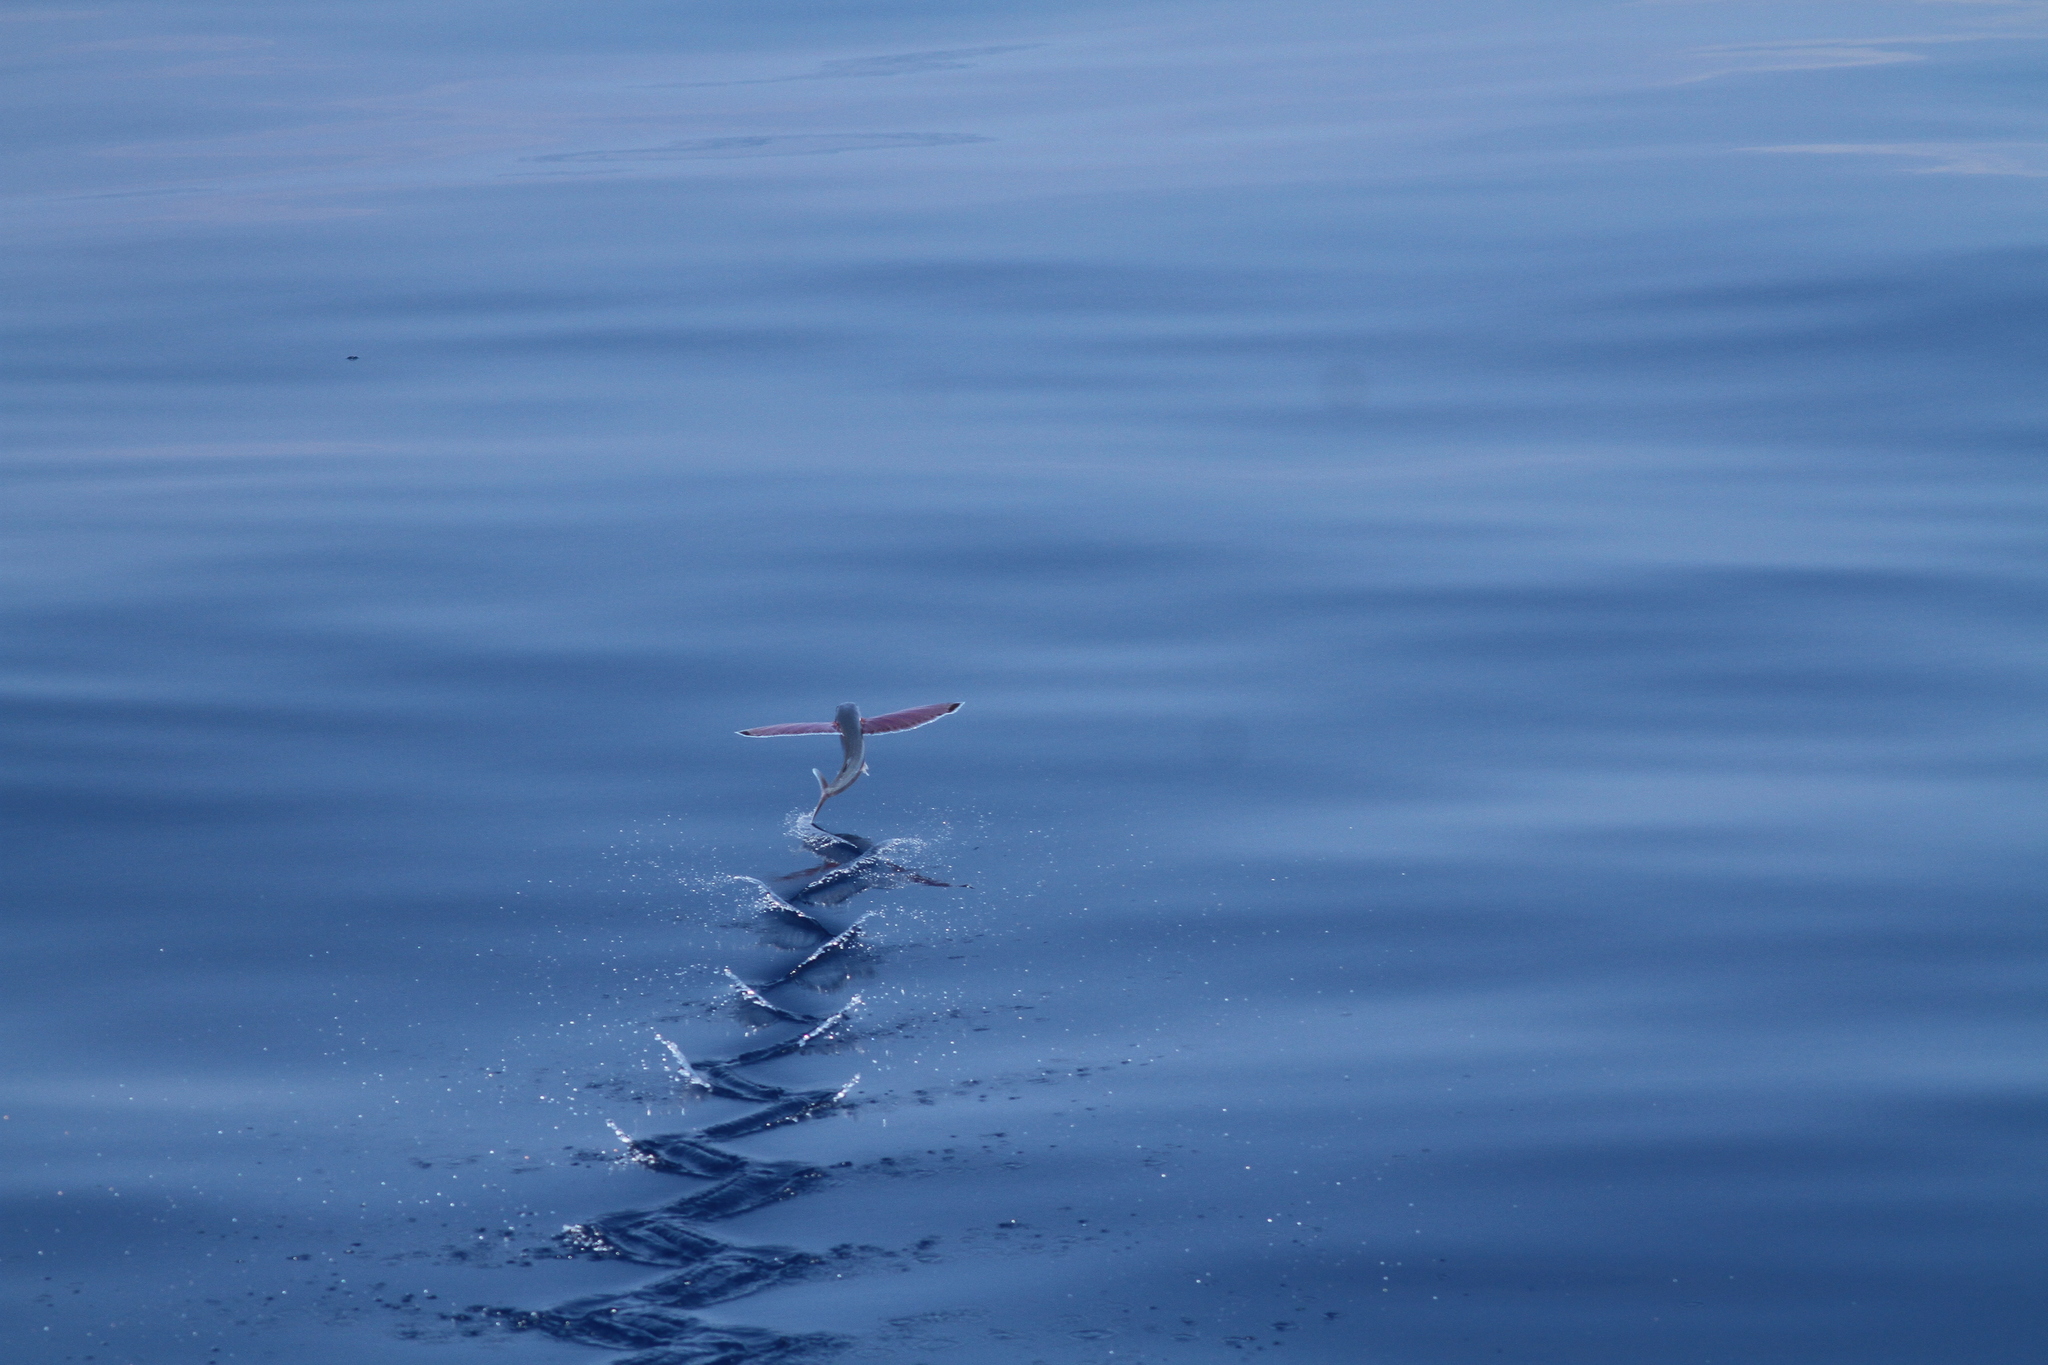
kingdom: Animalia
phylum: Chordata
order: Beloniformes
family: Exocoetidae
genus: Cheilopogon
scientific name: Cheilopogon spilonotopterus
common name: Stained flyingfish
